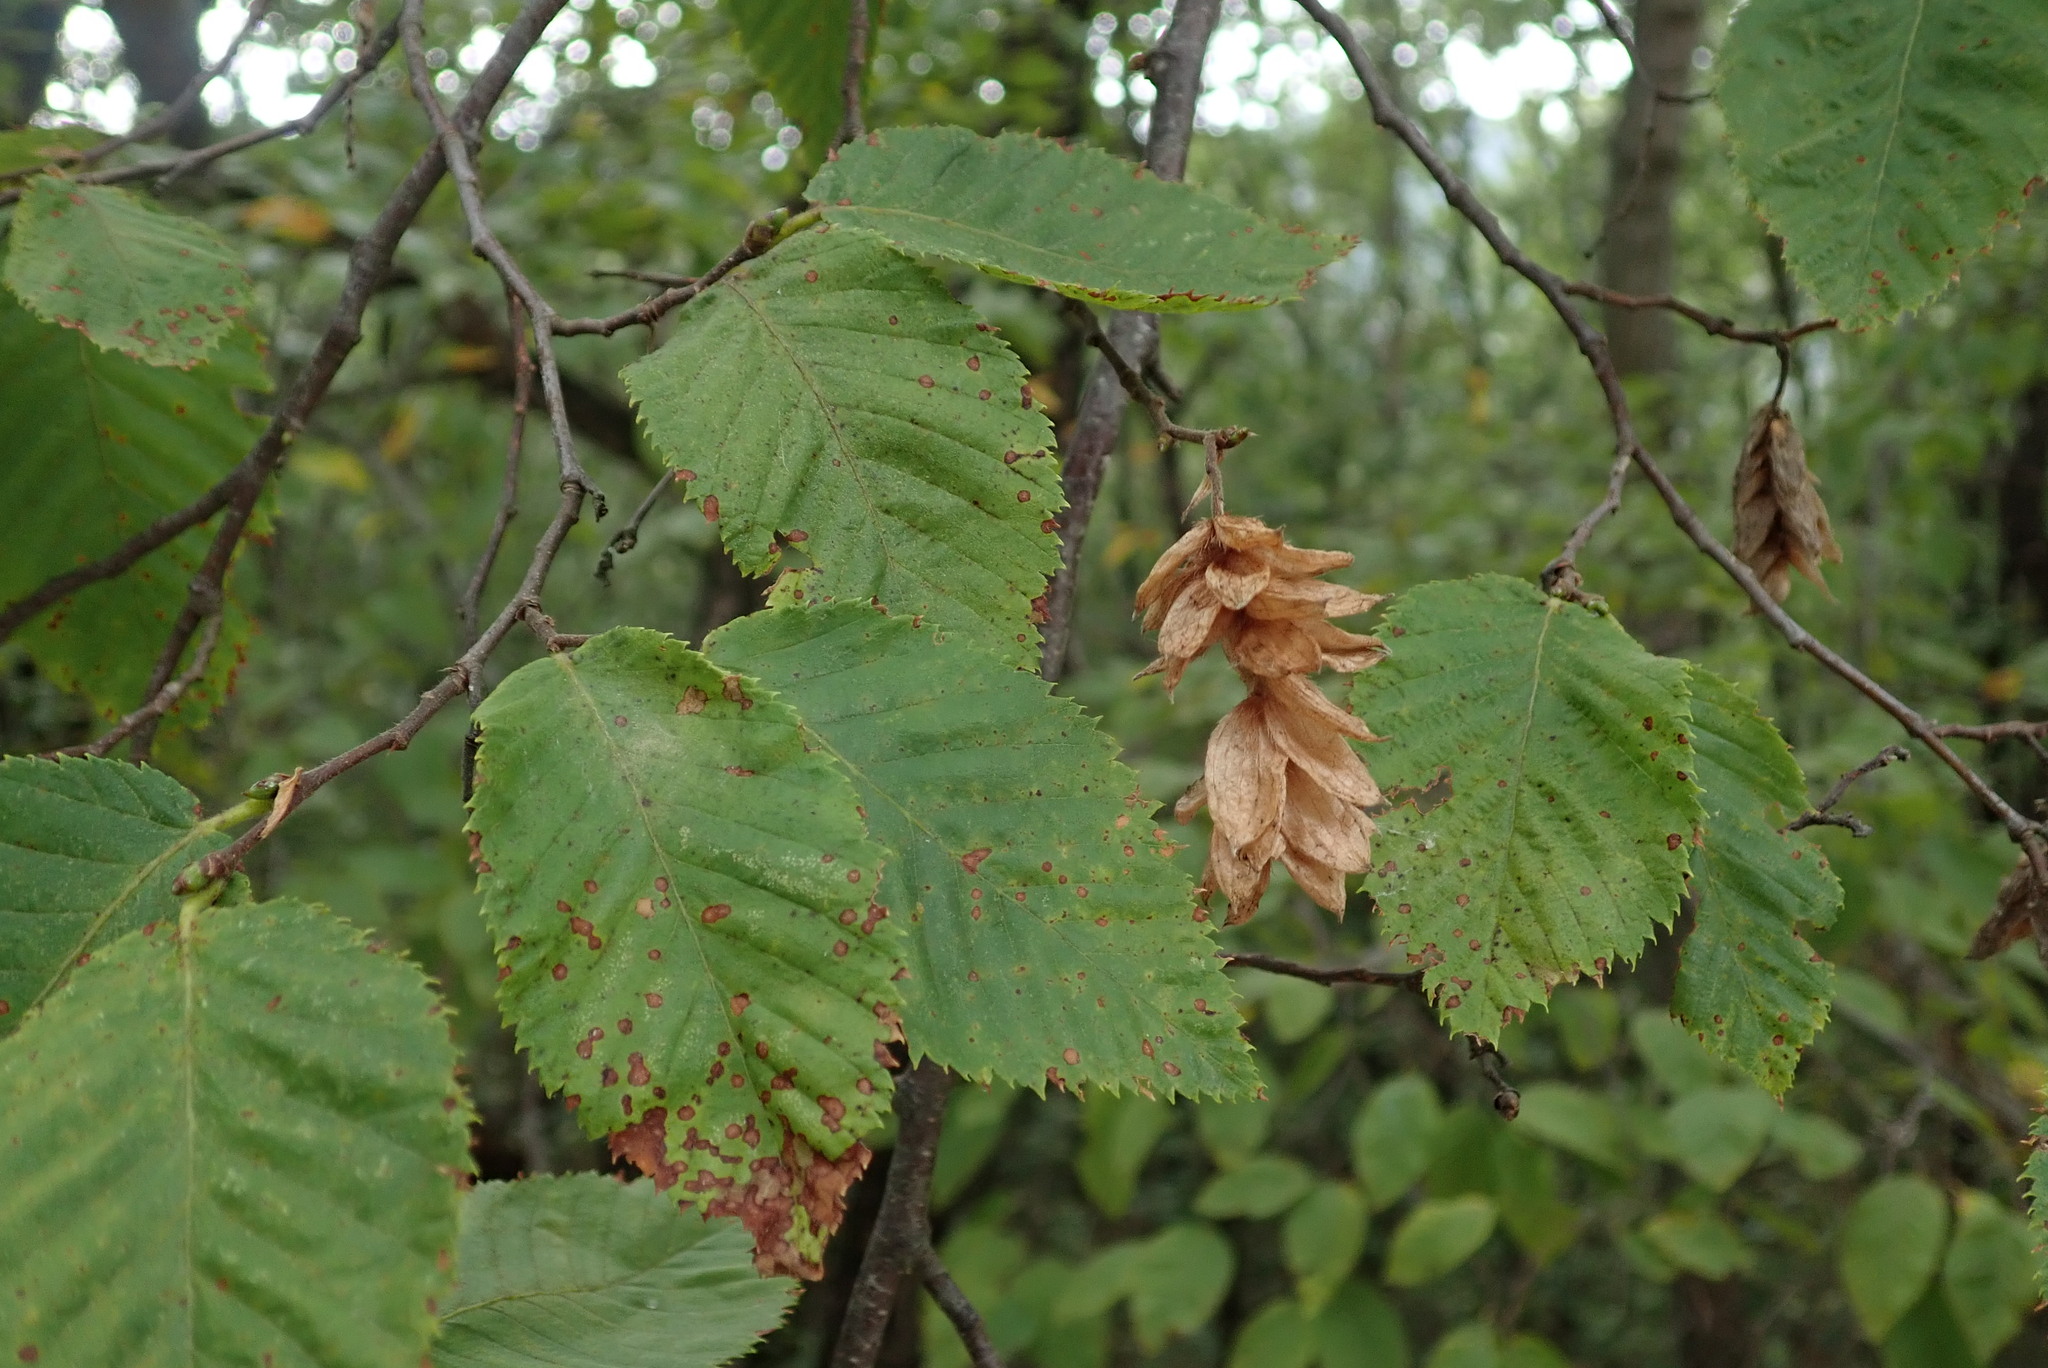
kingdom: Plantae
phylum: Tracheophyta
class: Magnoliopsida
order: Fagales
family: Betulaceae
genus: Ostrya
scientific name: Ostrya carpinifolia
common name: European hop-hornbeam
